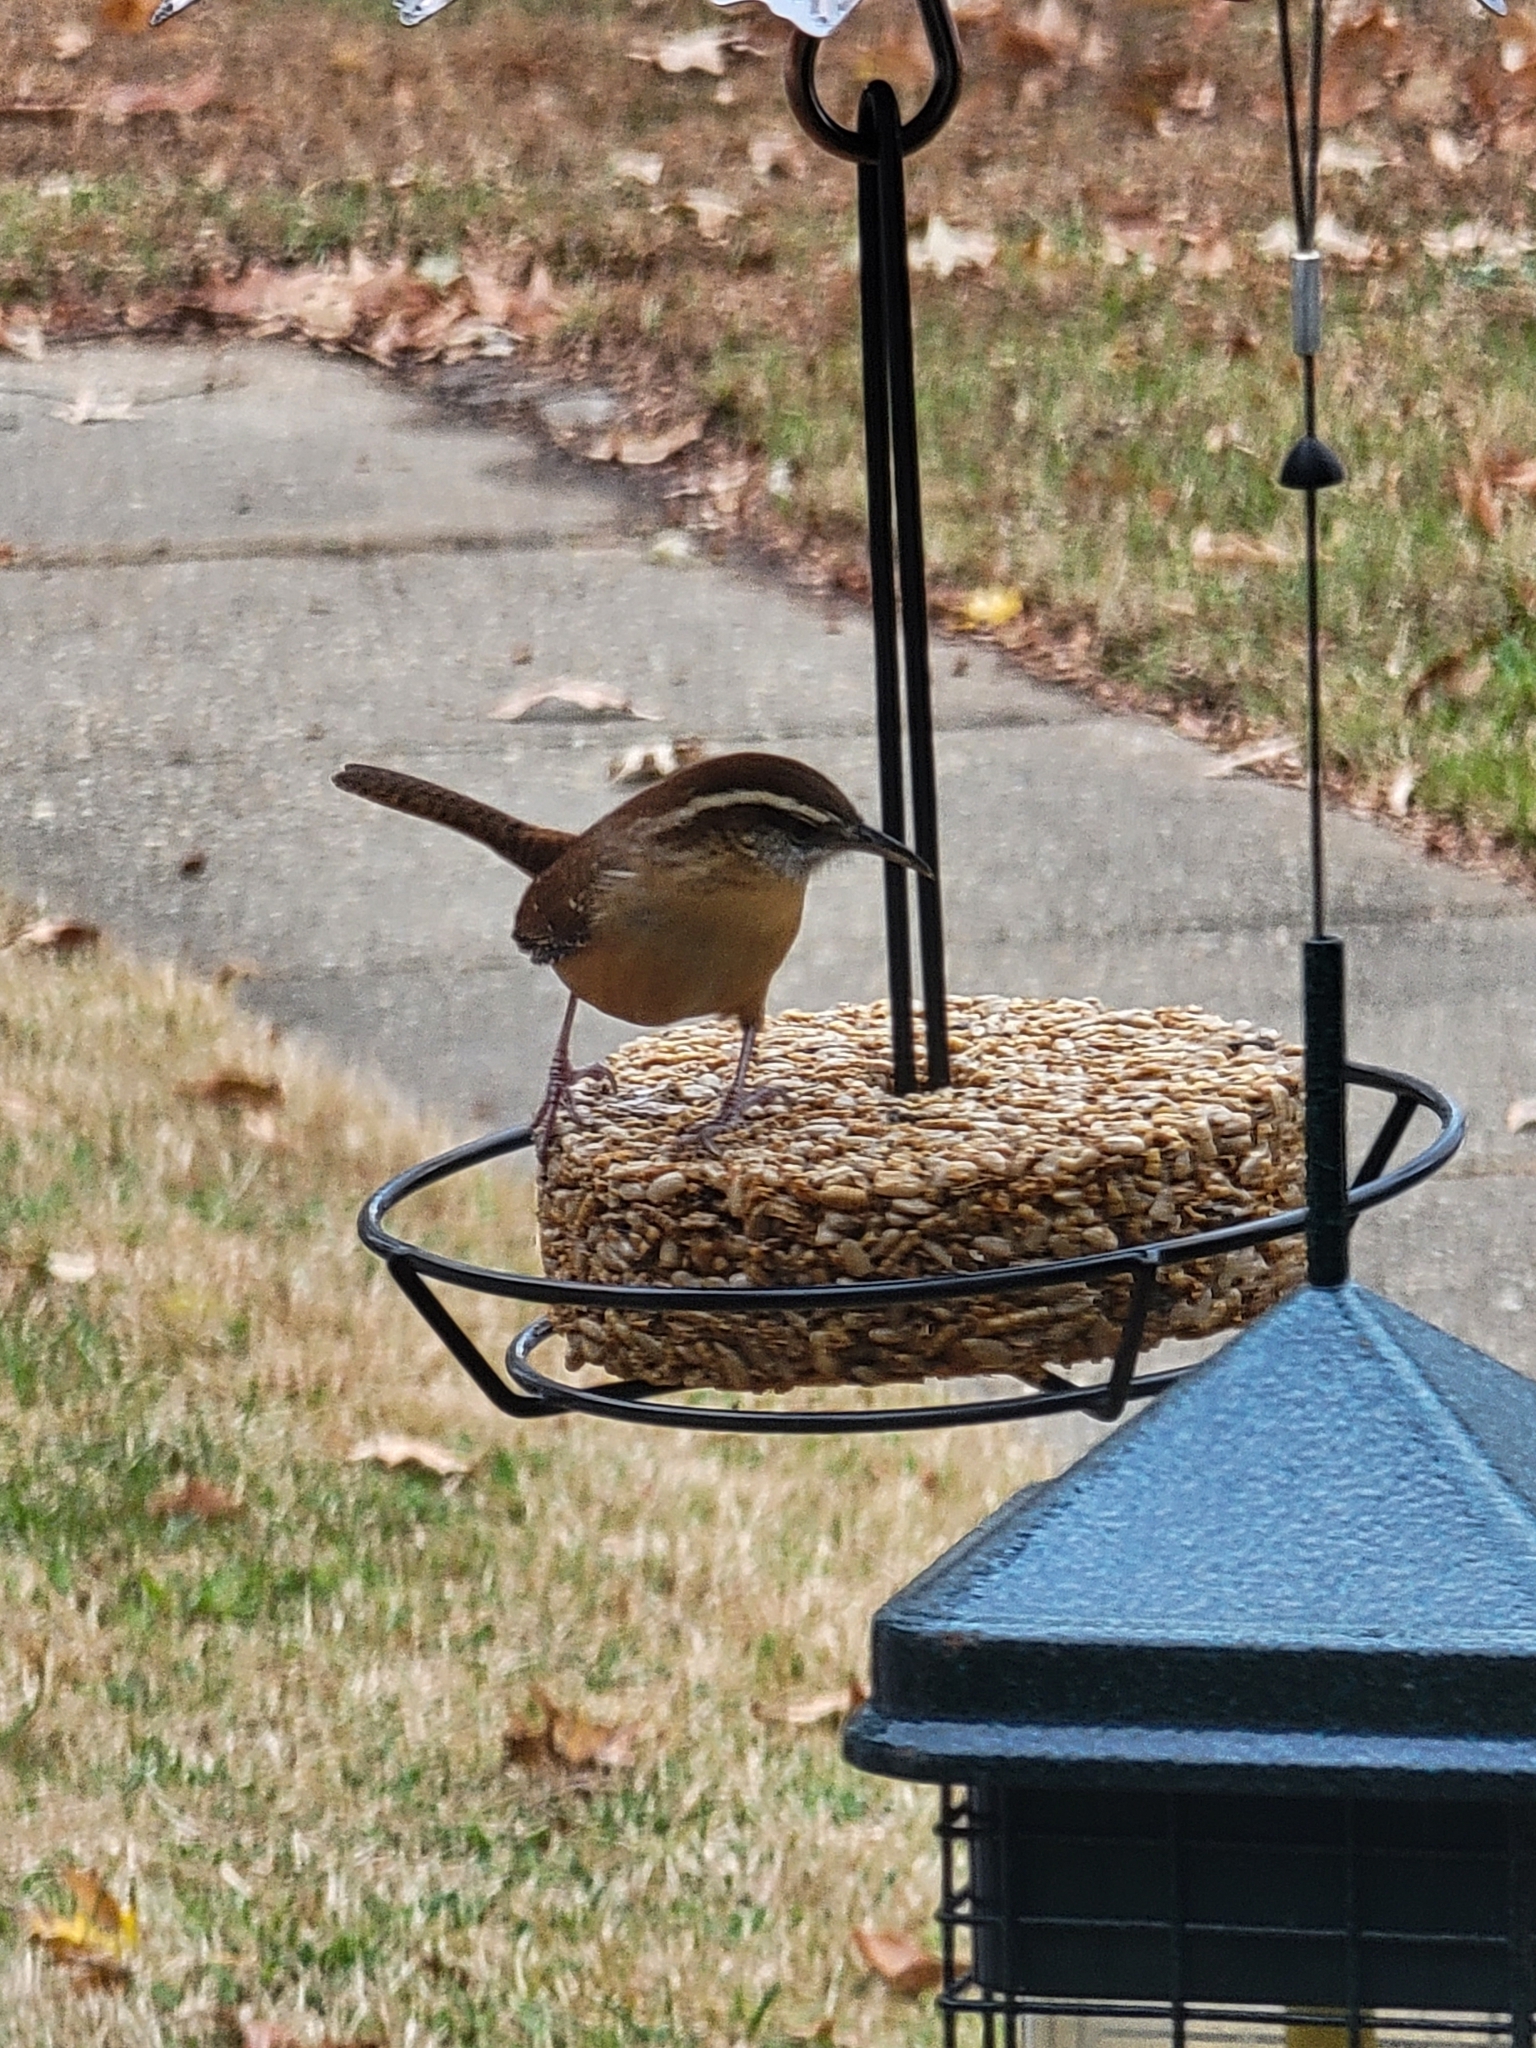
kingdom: Animalia
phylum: Chordata
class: Aves
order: Passeriformes
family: Troglodytidae
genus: Thryothorus
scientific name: Thryothorus ludovicianus
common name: Carolina wren
